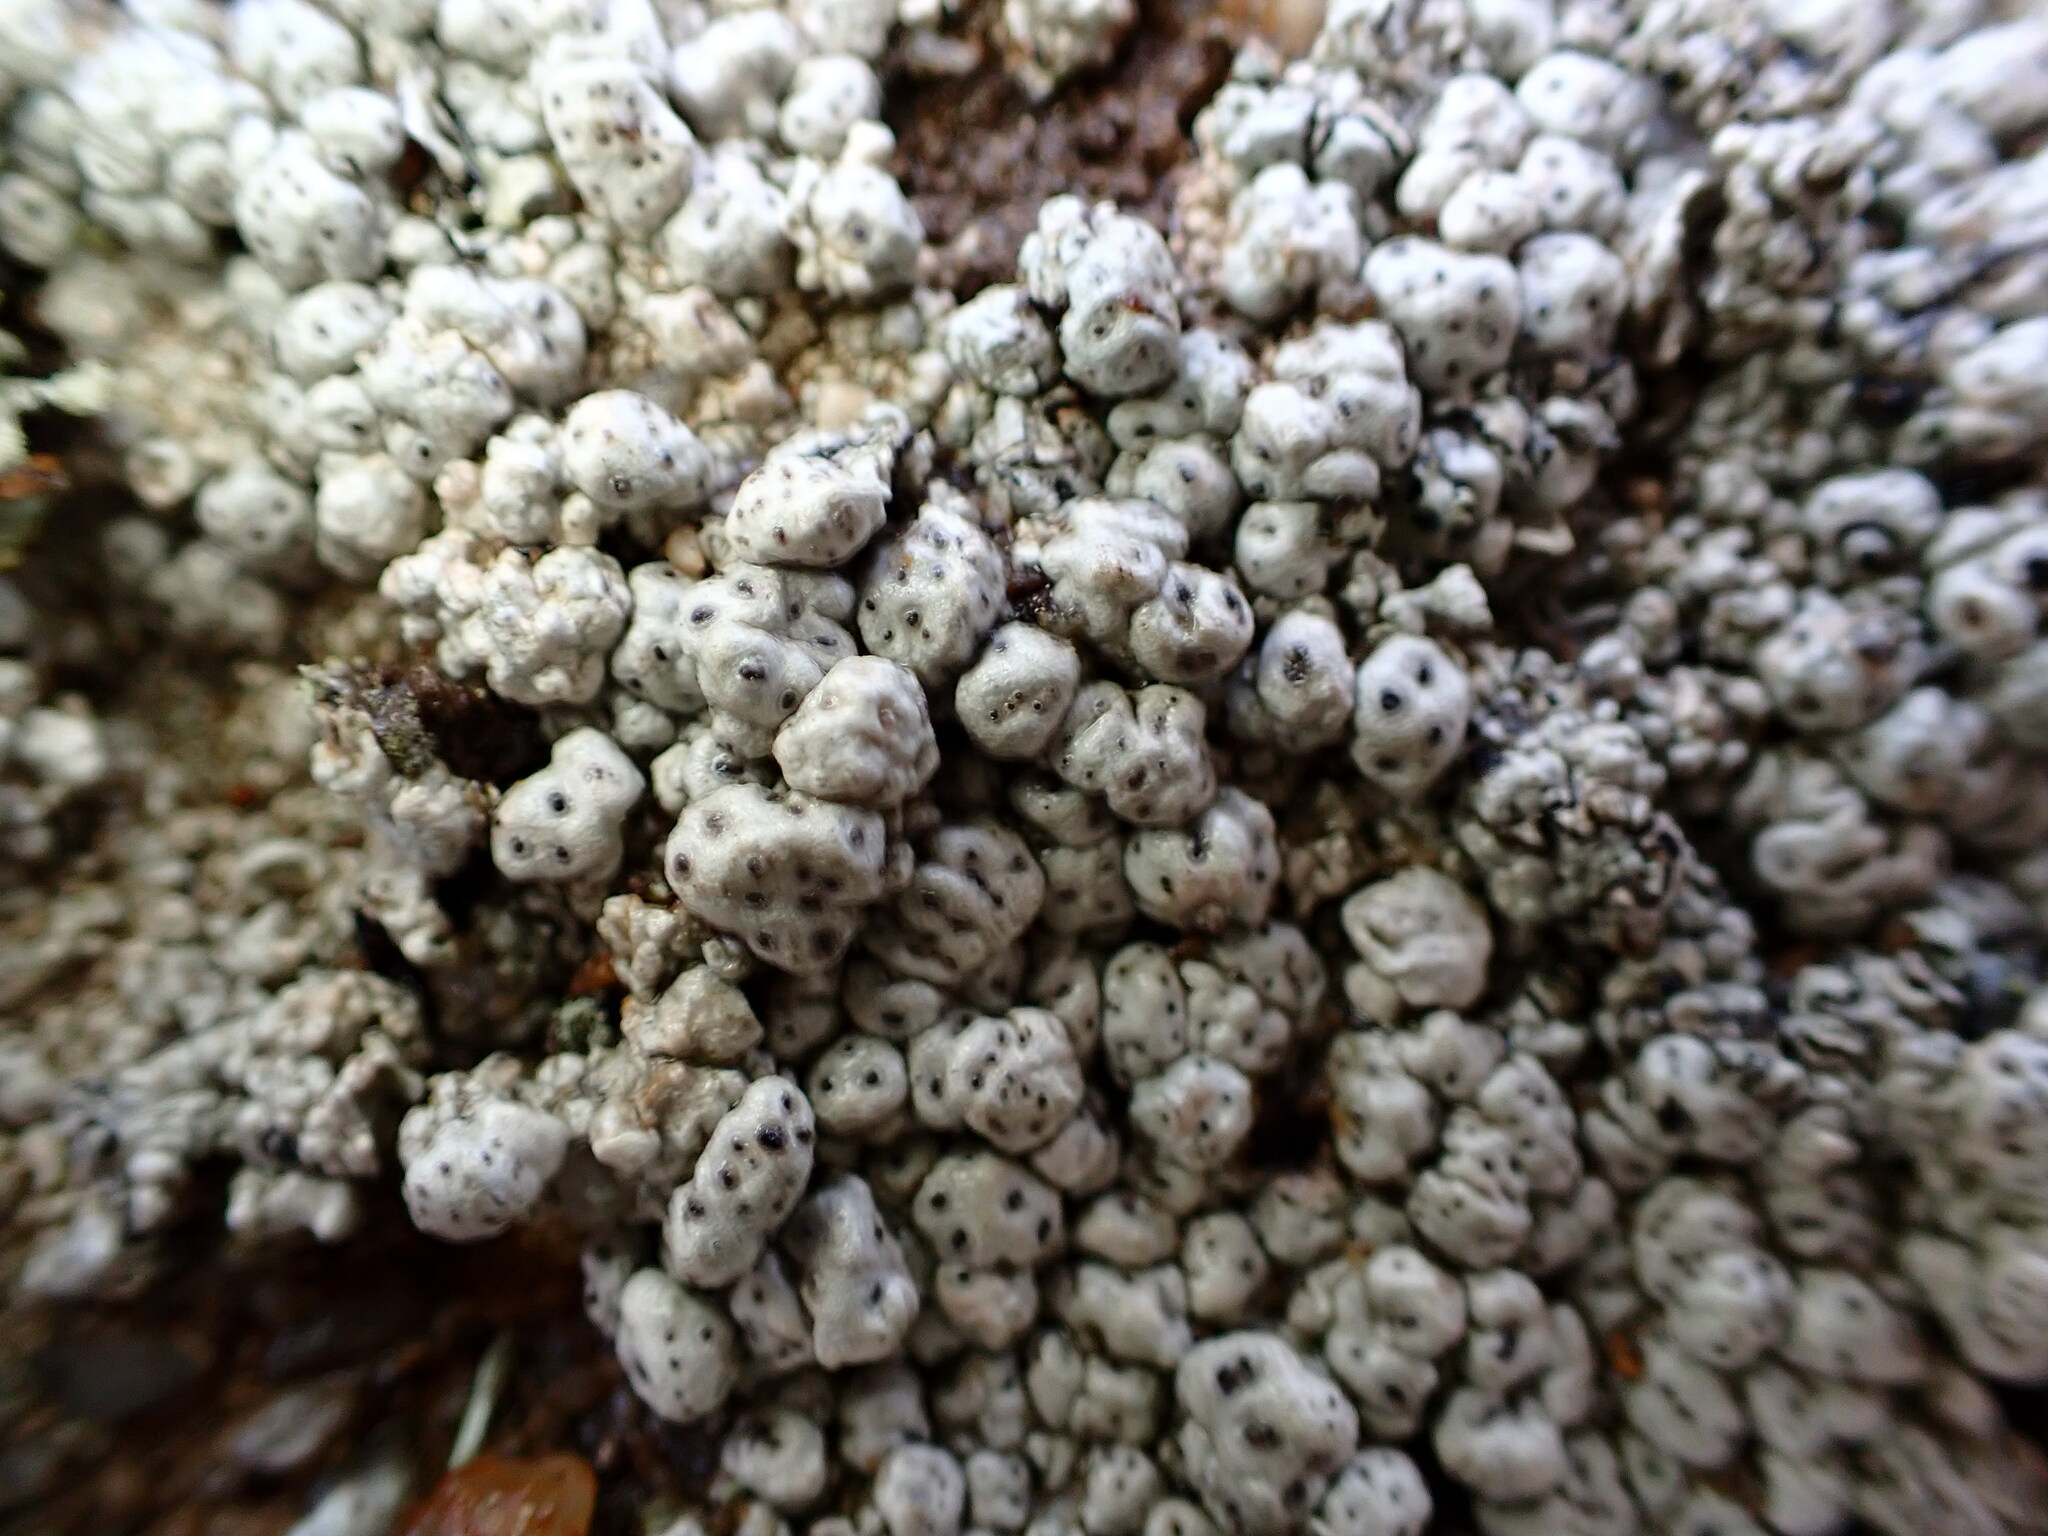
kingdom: Fungi
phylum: Ascomycota
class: Lecanoromycetes
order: Pertusariales
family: Pertusariaceae
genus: Pertusaria
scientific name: Pertusaria californica
